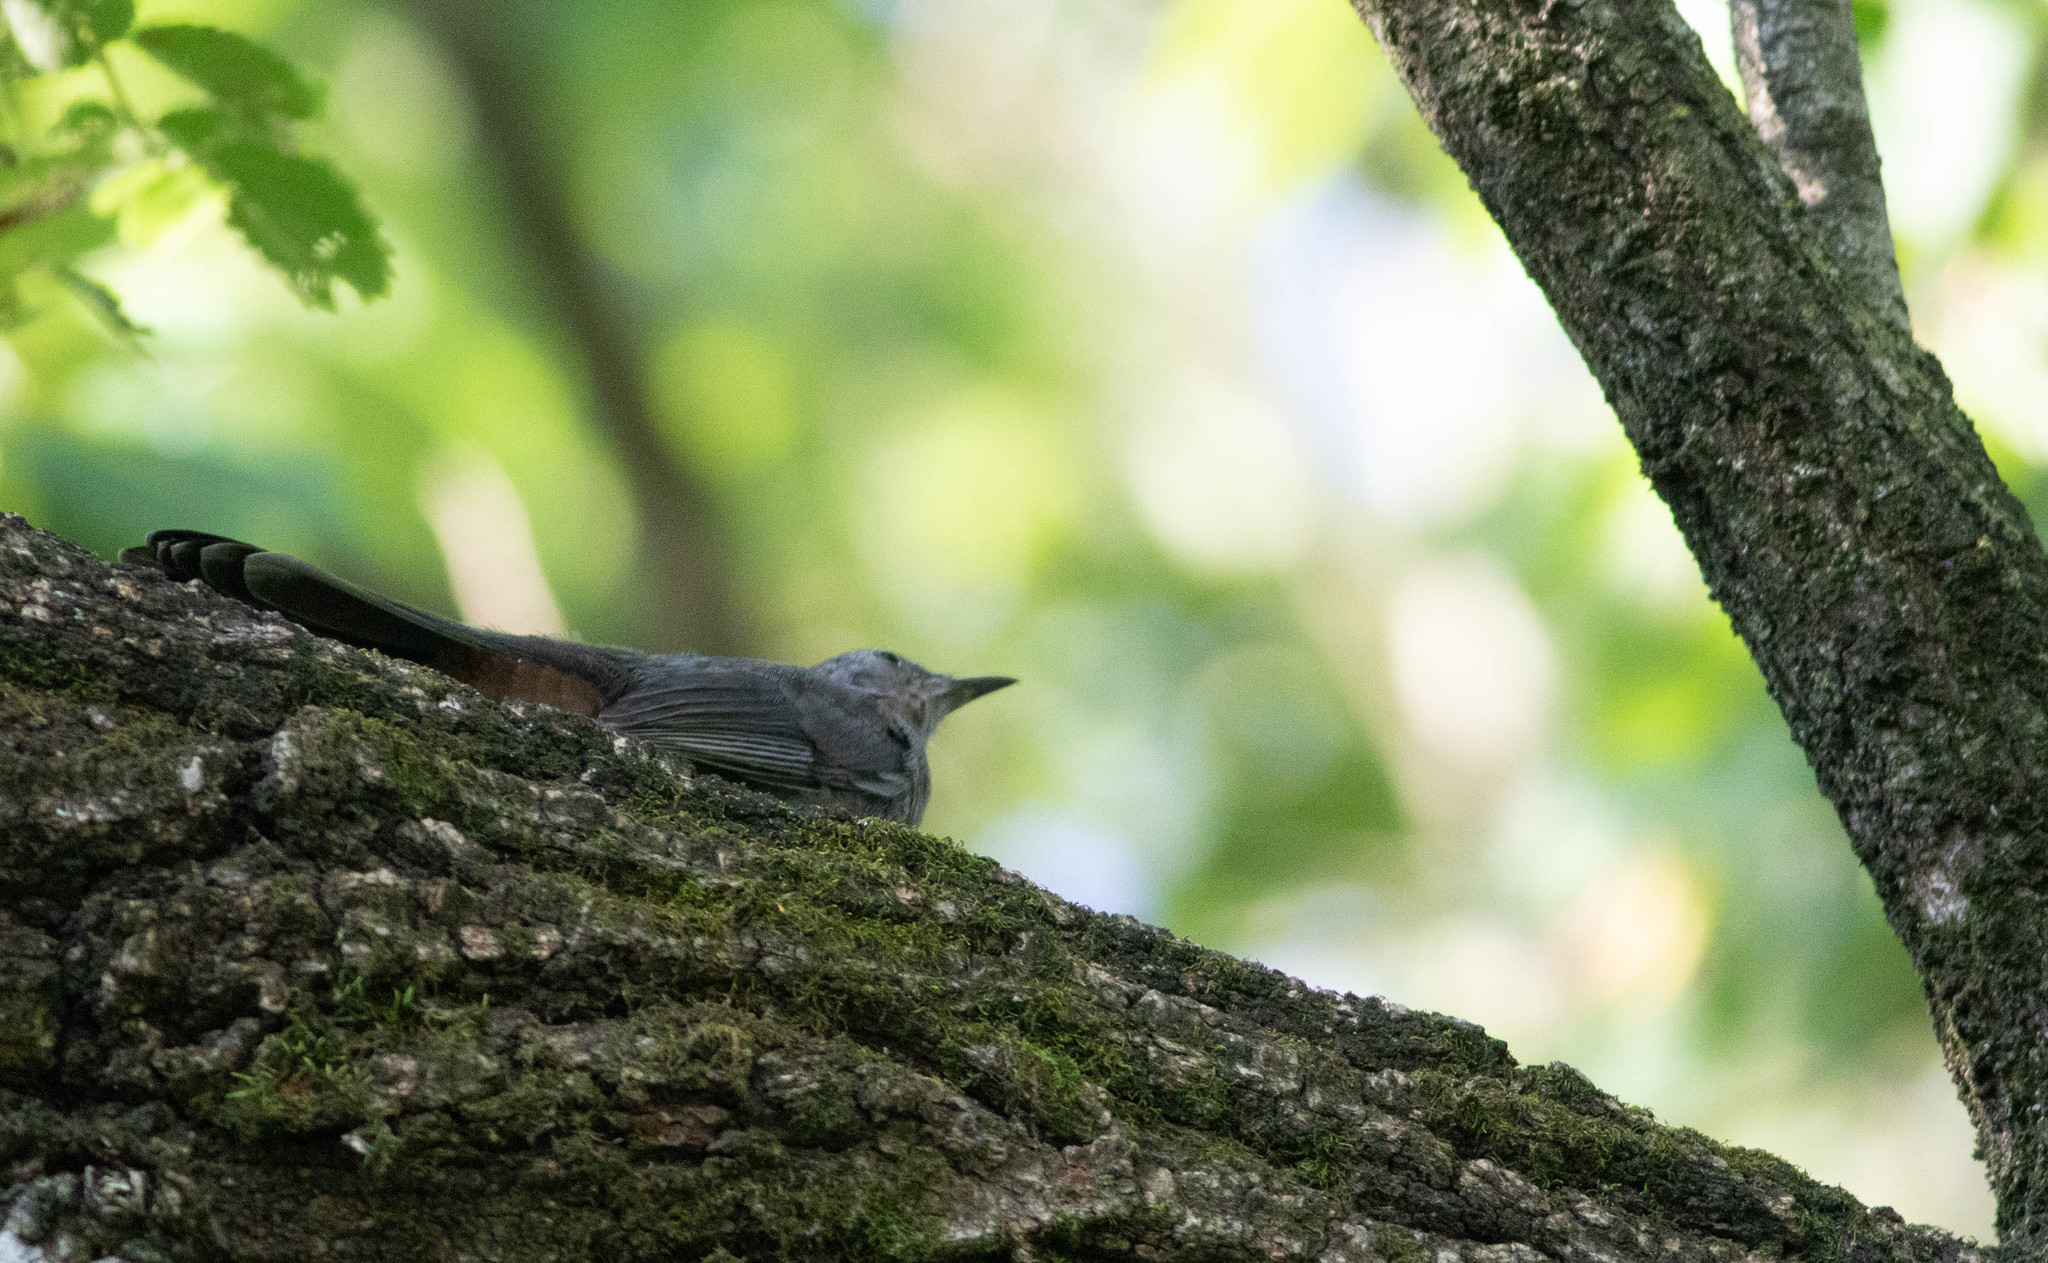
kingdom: Animalia
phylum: Chordata
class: Aves
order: Passeriformes
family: Mimidae
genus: Dumetella
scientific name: Dumetella carolinensis
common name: Gray catbird
